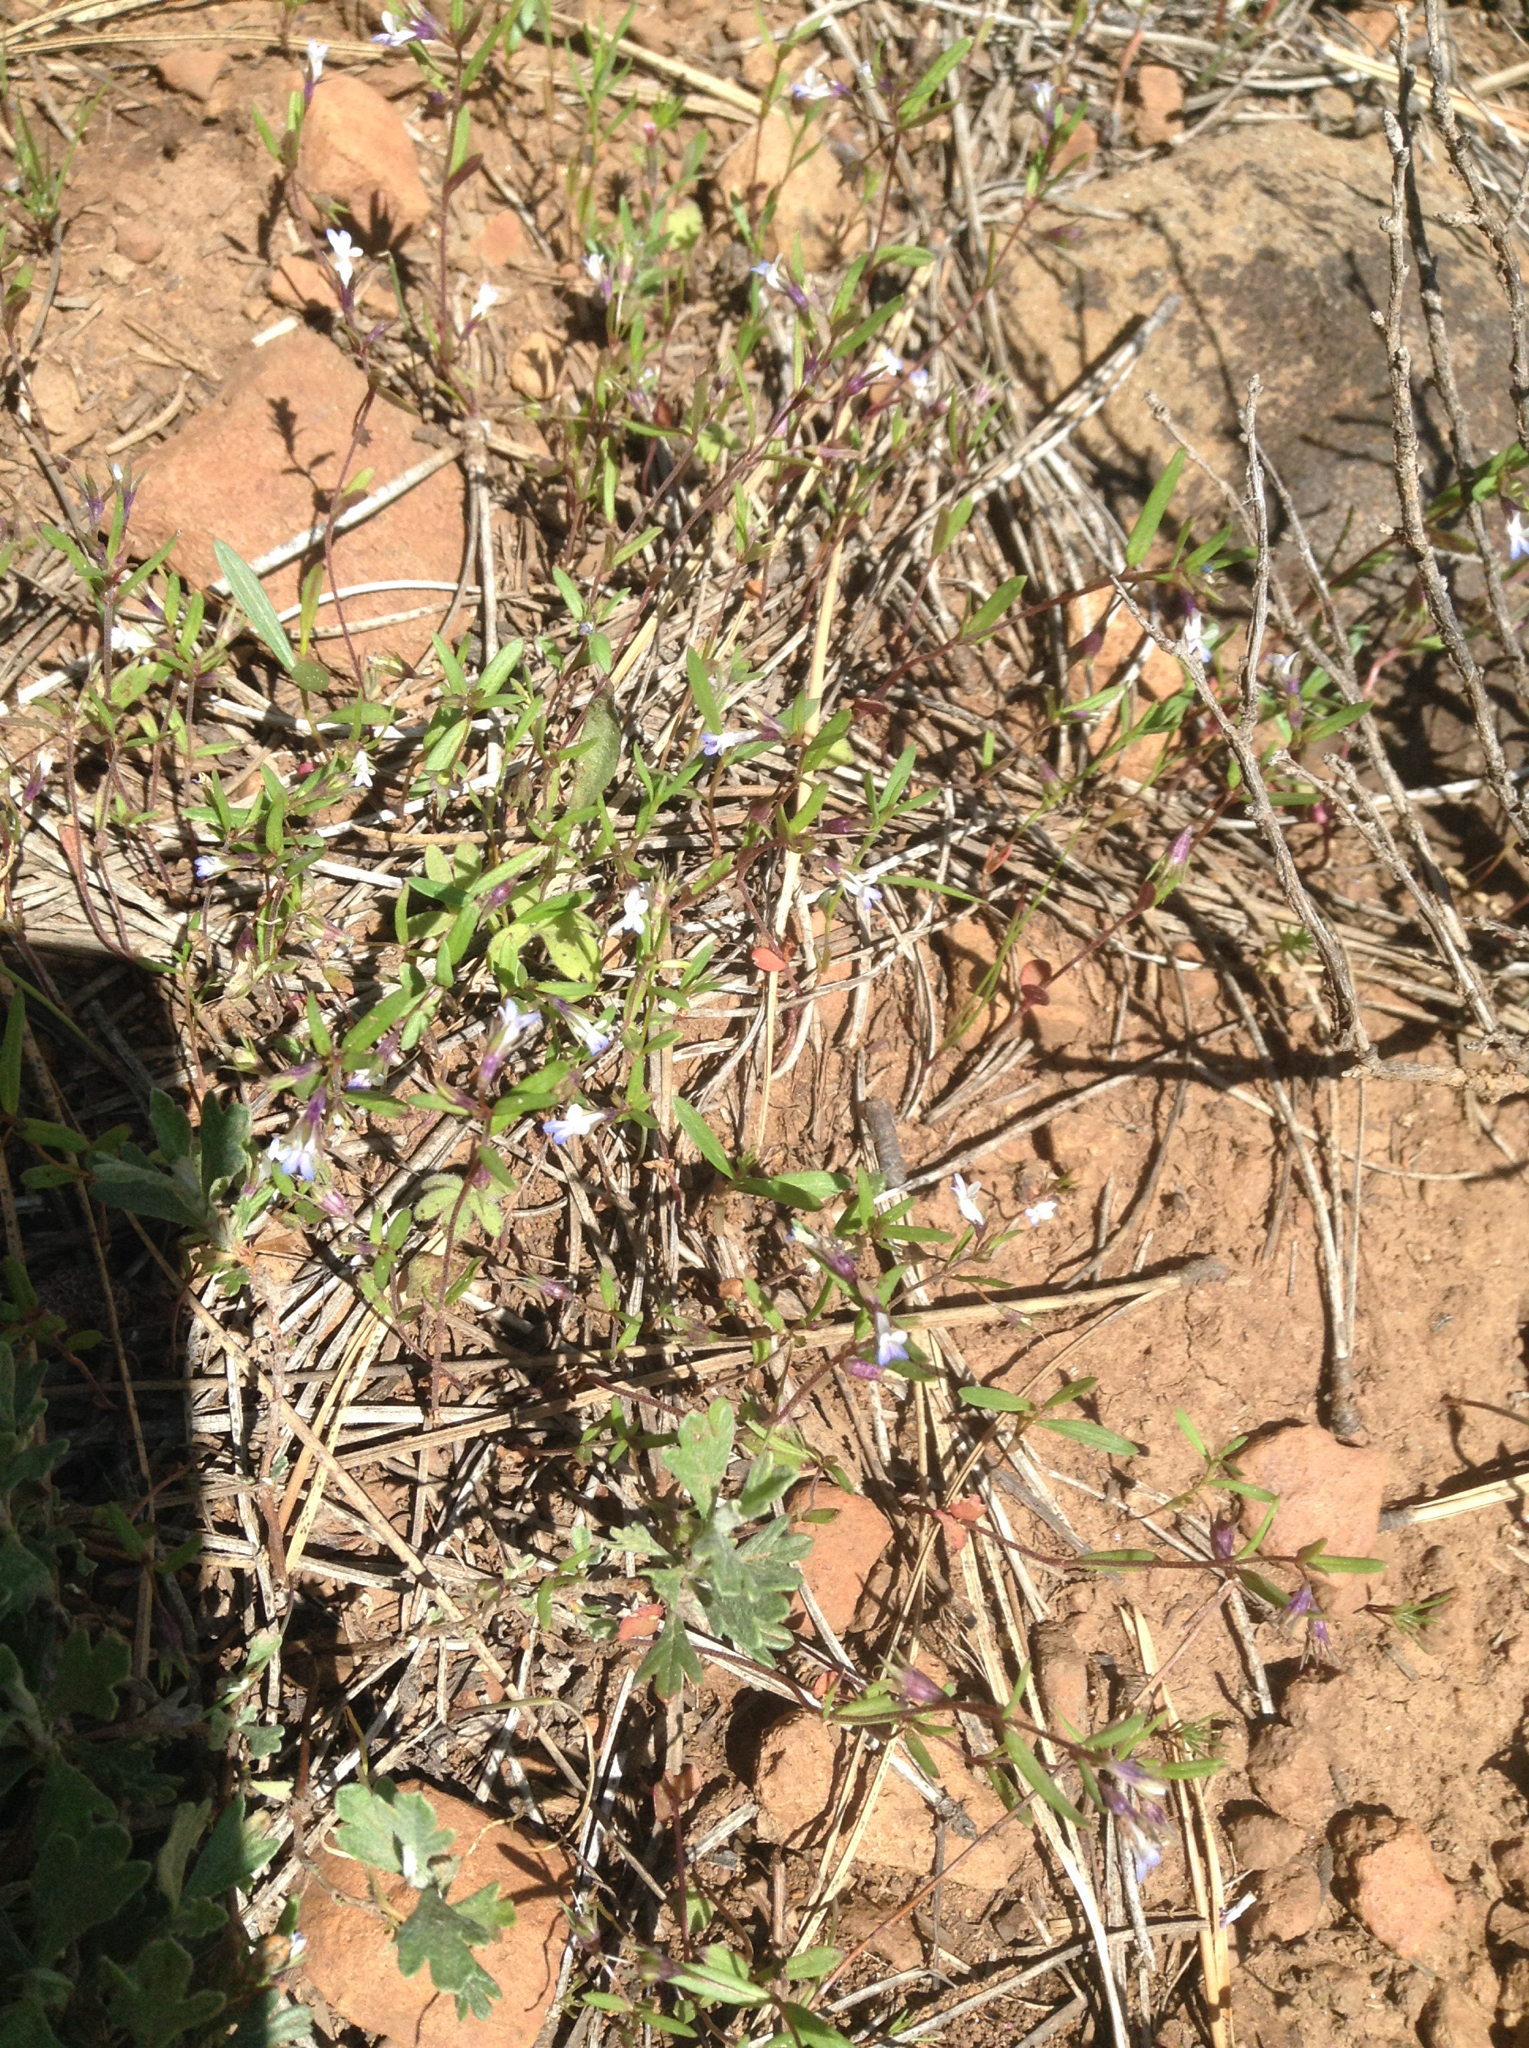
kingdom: Plantae
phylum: Tracheophyta
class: Magnoliopsida
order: Lamiales
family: Plantaginaceae
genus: Collinsia
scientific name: Collinsia parviflora
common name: Blue-lips
